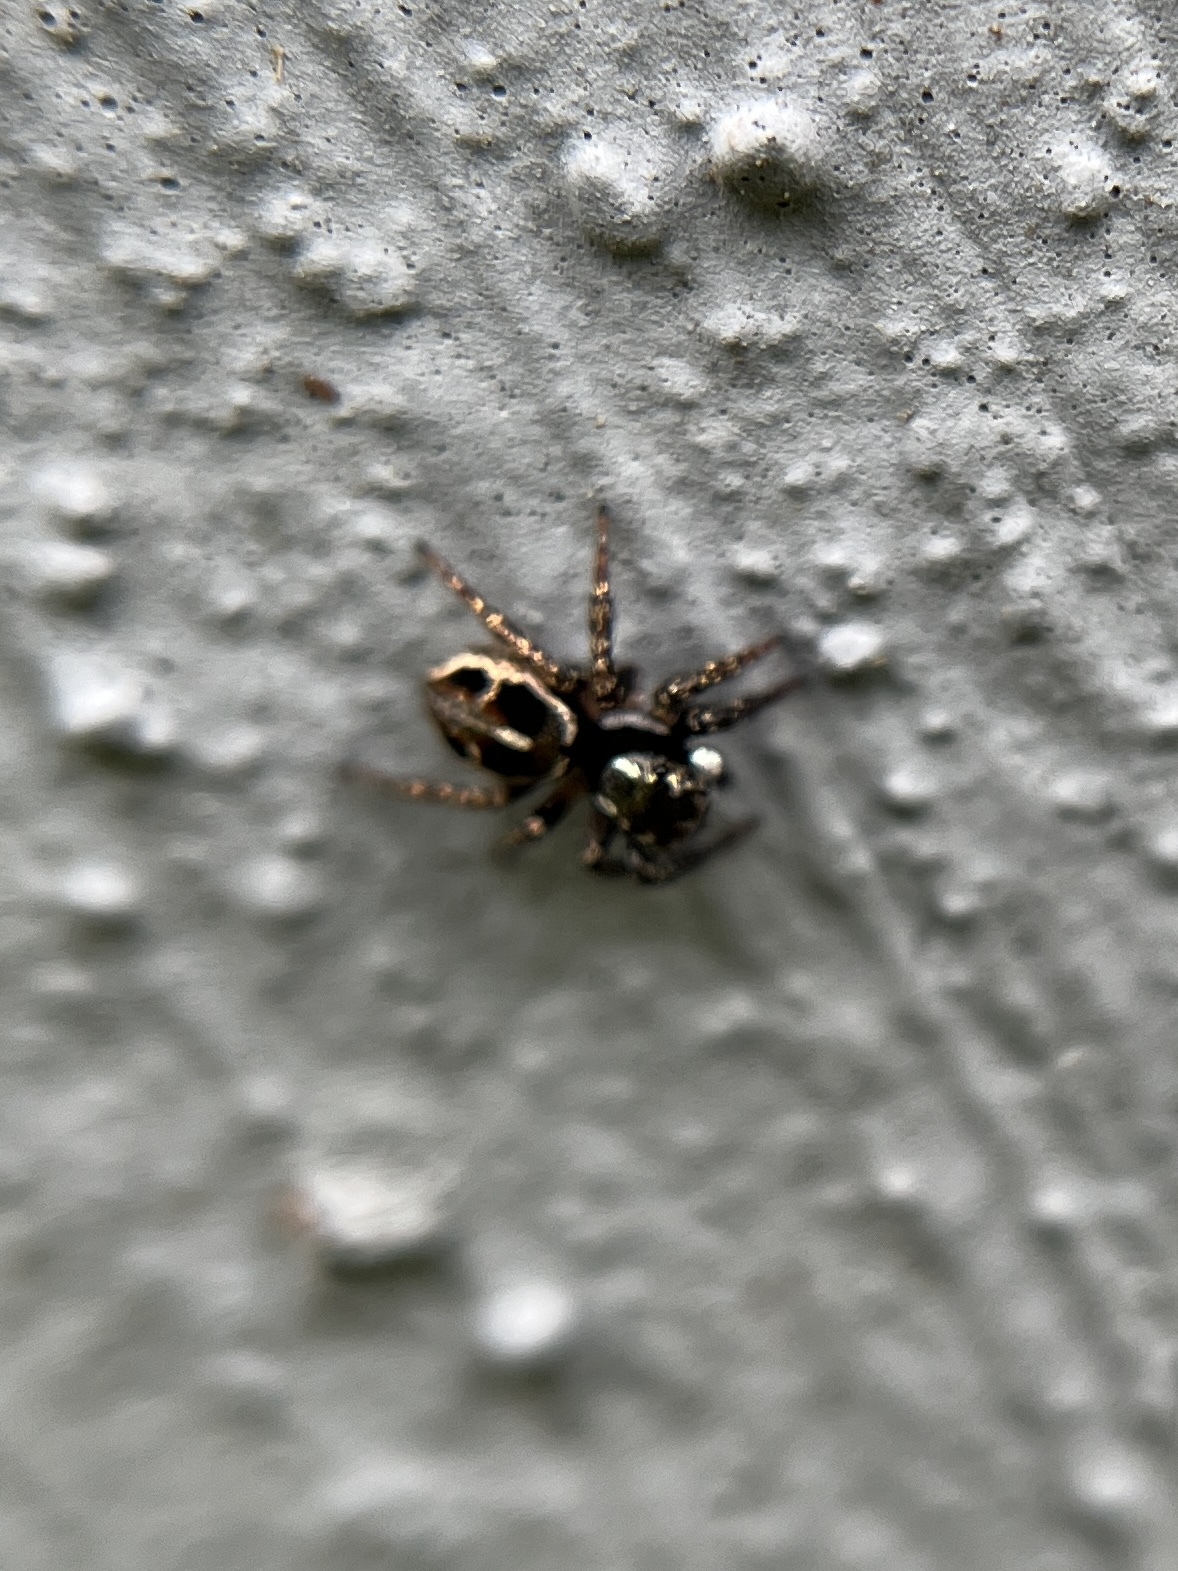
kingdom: Animalia
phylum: Arthropoda
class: Arachnida
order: Araneae
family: Salticidae
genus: Anasaitis
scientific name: Anasaitis canosa
